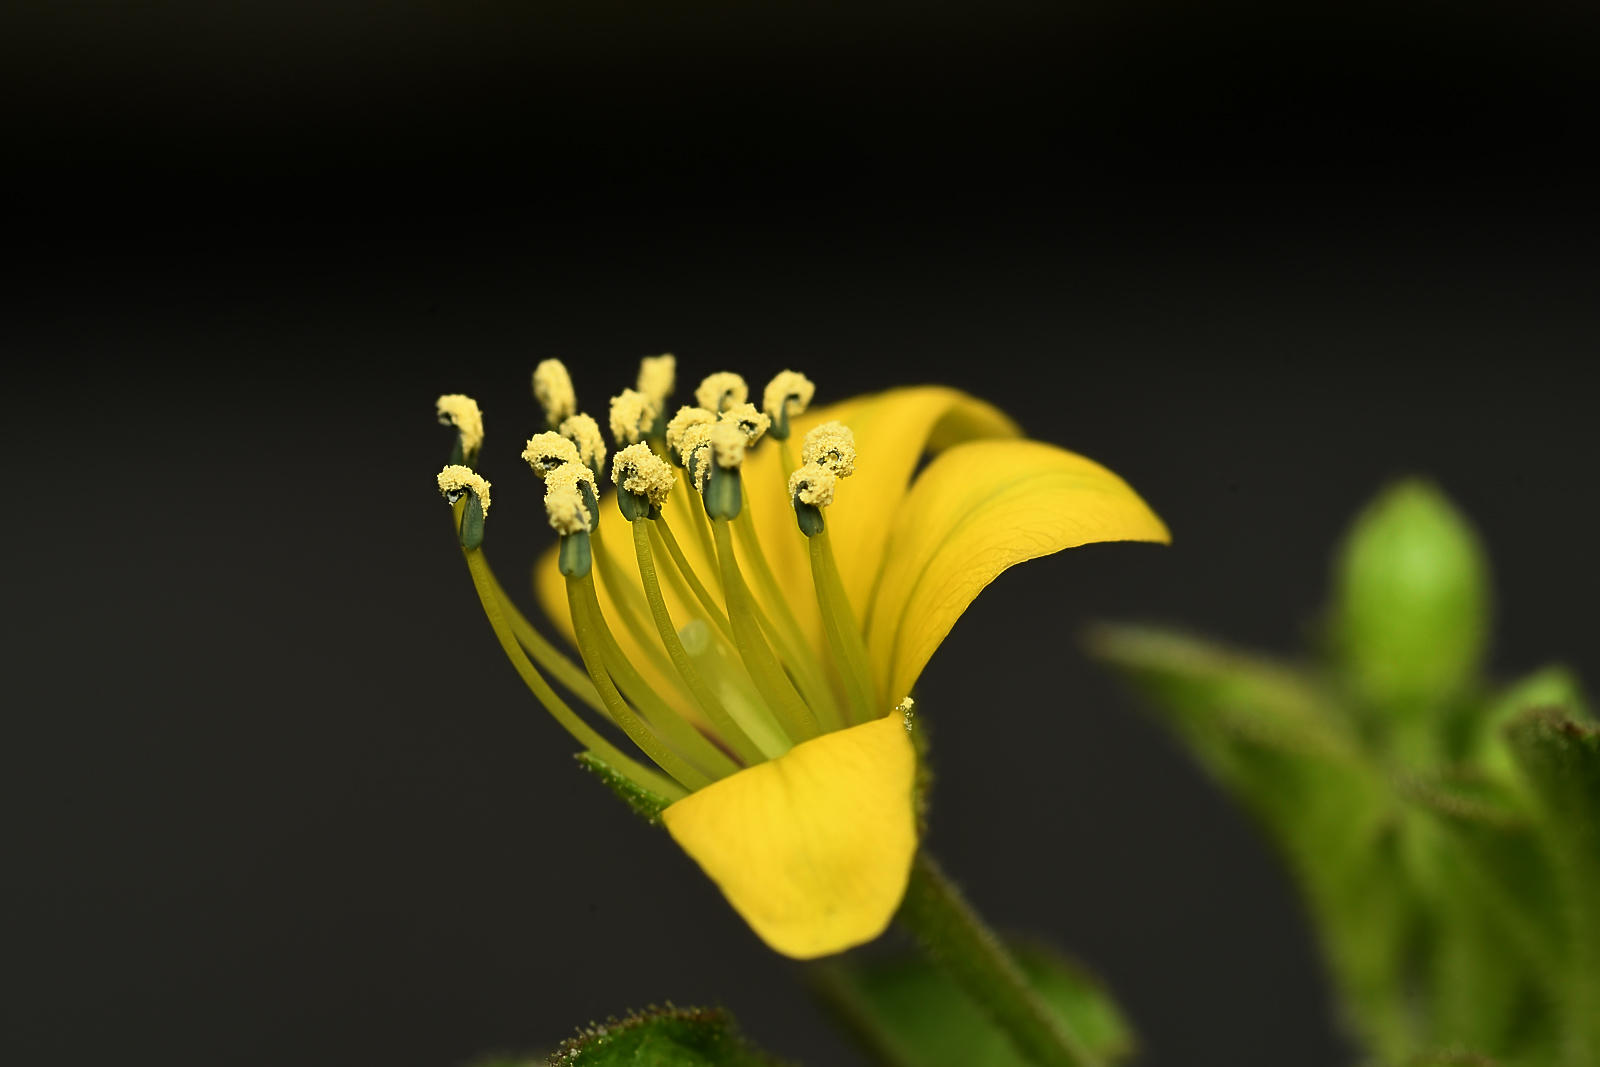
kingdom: Plantae
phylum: Tracheophyta
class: Magnoliopsida
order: Brassicales
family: Cleomaceae
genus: Arivela
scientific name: Arivela viscosa
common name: Asian spiderflower
